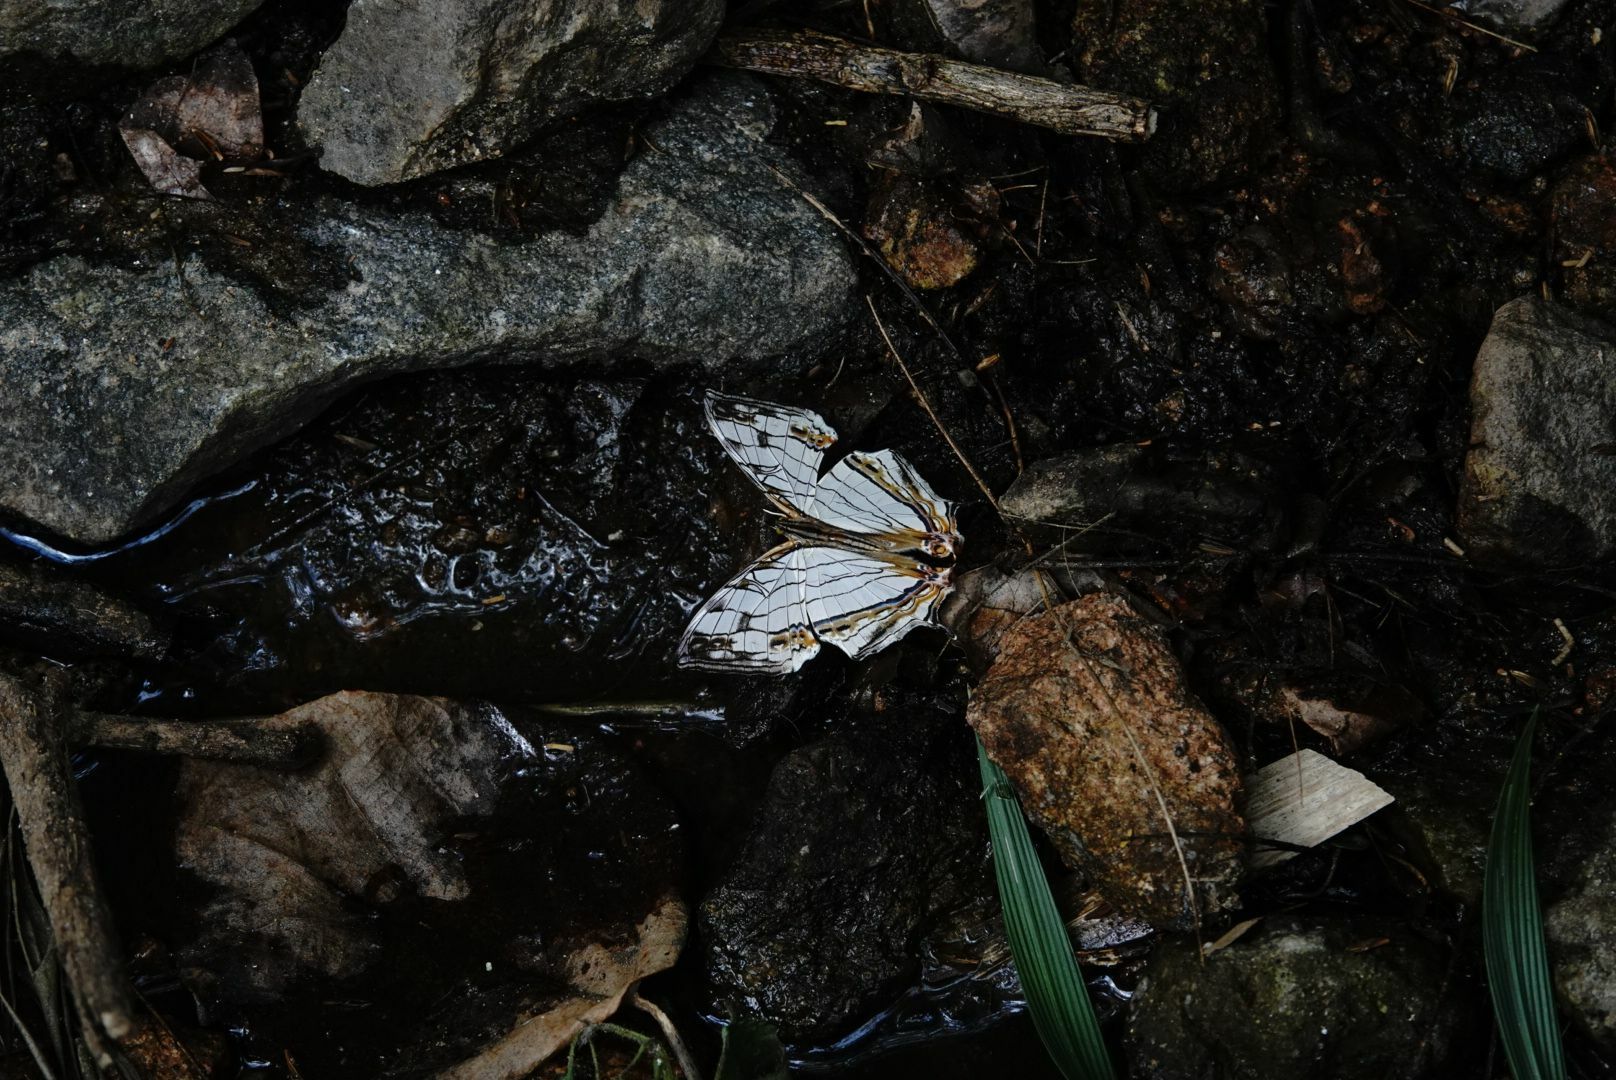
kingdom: Animalia
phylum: Arthropoda
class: Insecta
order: Lepidoptera
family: Nymphalidae
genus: Cyrestis
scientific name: Cyrestis thyodamas
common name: Common mapwing
